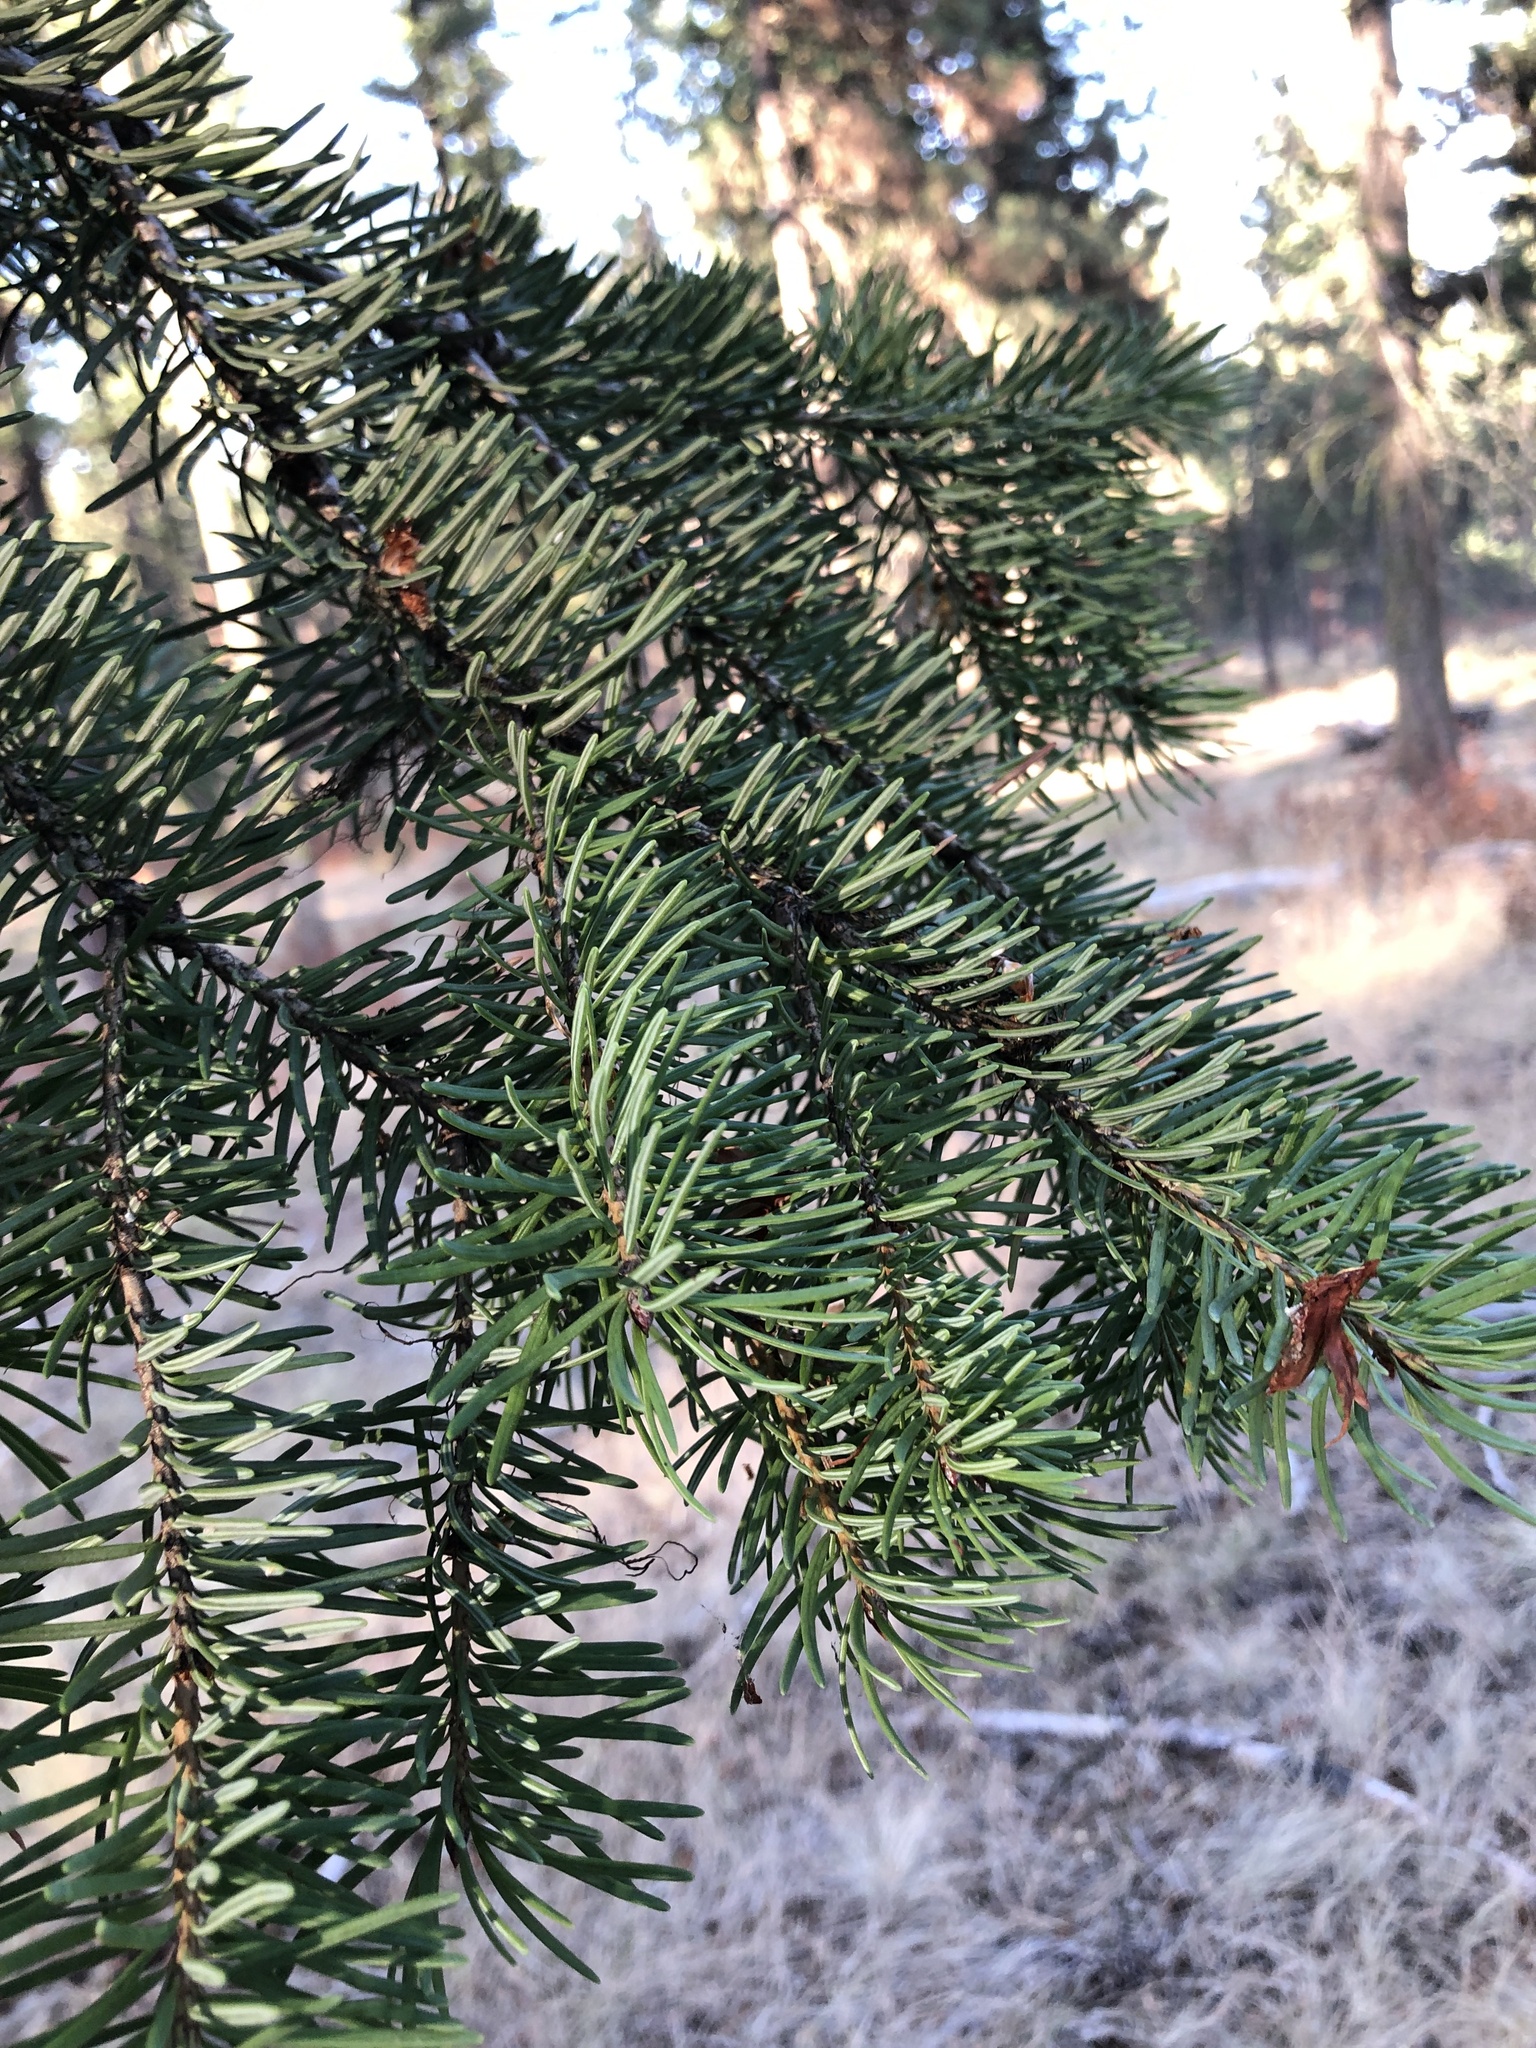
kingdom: Plantae
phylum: Tracheophyta
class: Pinopsida
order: Pinales
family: Pinaceae
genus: Pseudotsuga
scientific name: Pseudotsuga menziesii
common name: Douglas fir
